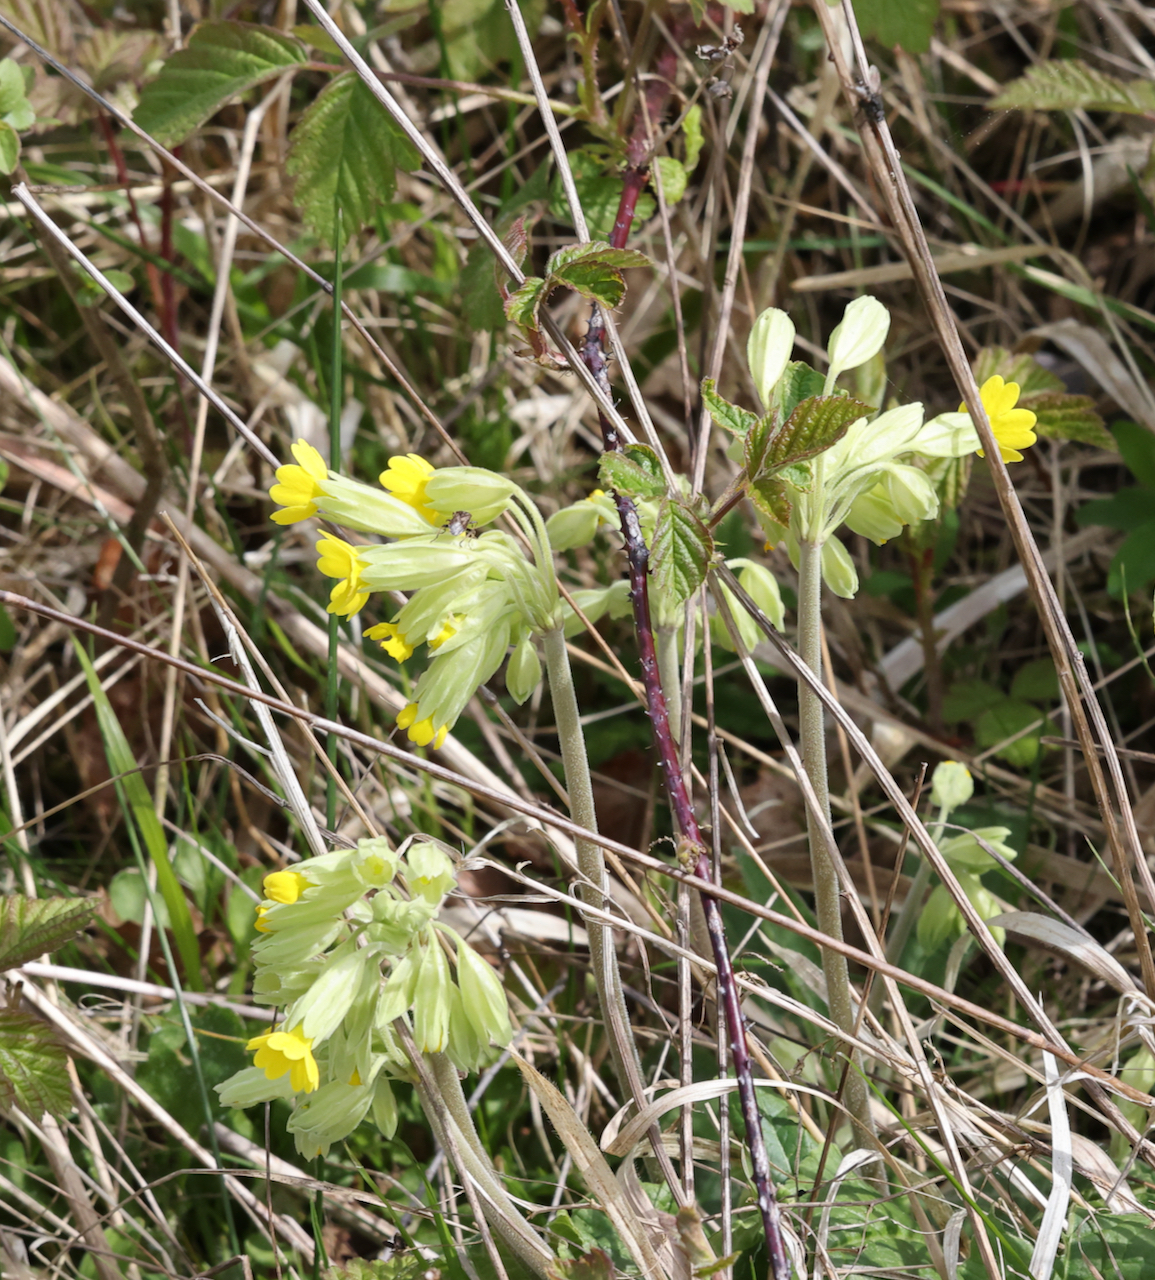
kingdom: Plantae
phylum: Tracheophyta
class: Magnoliopsida
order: Ericales
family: Primulaceae
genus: Primula
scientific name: Primula veris
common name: Cowslip
